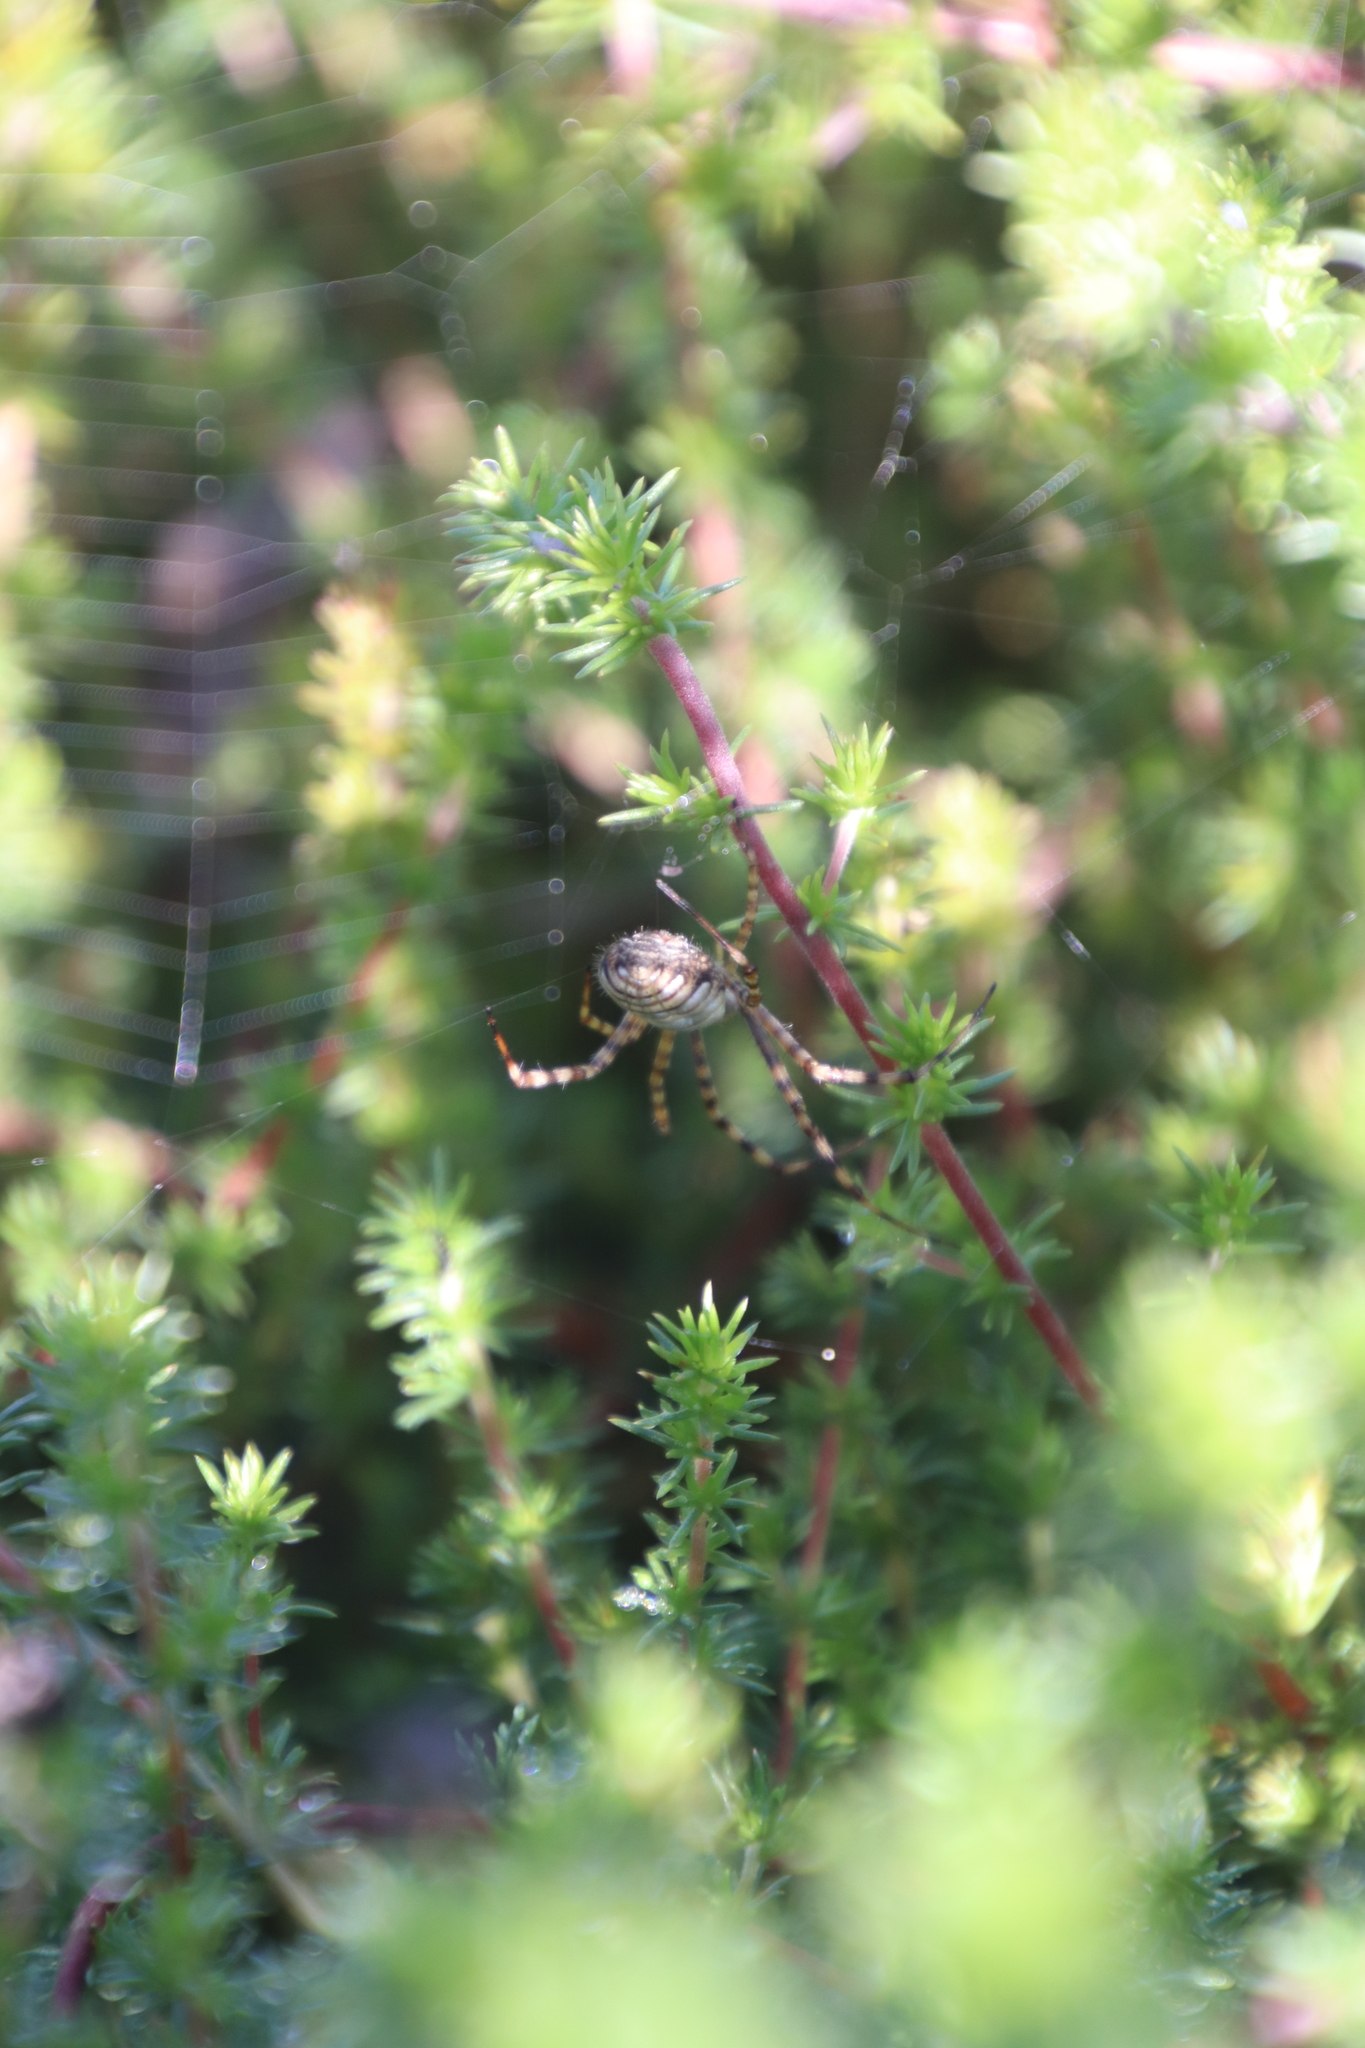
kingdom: Animalia
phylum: Arthropoda
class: Arachnida
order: Araneae
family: Araneidae
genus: Argiope
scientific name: Argiope trifasciata
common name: Banded garden spider
